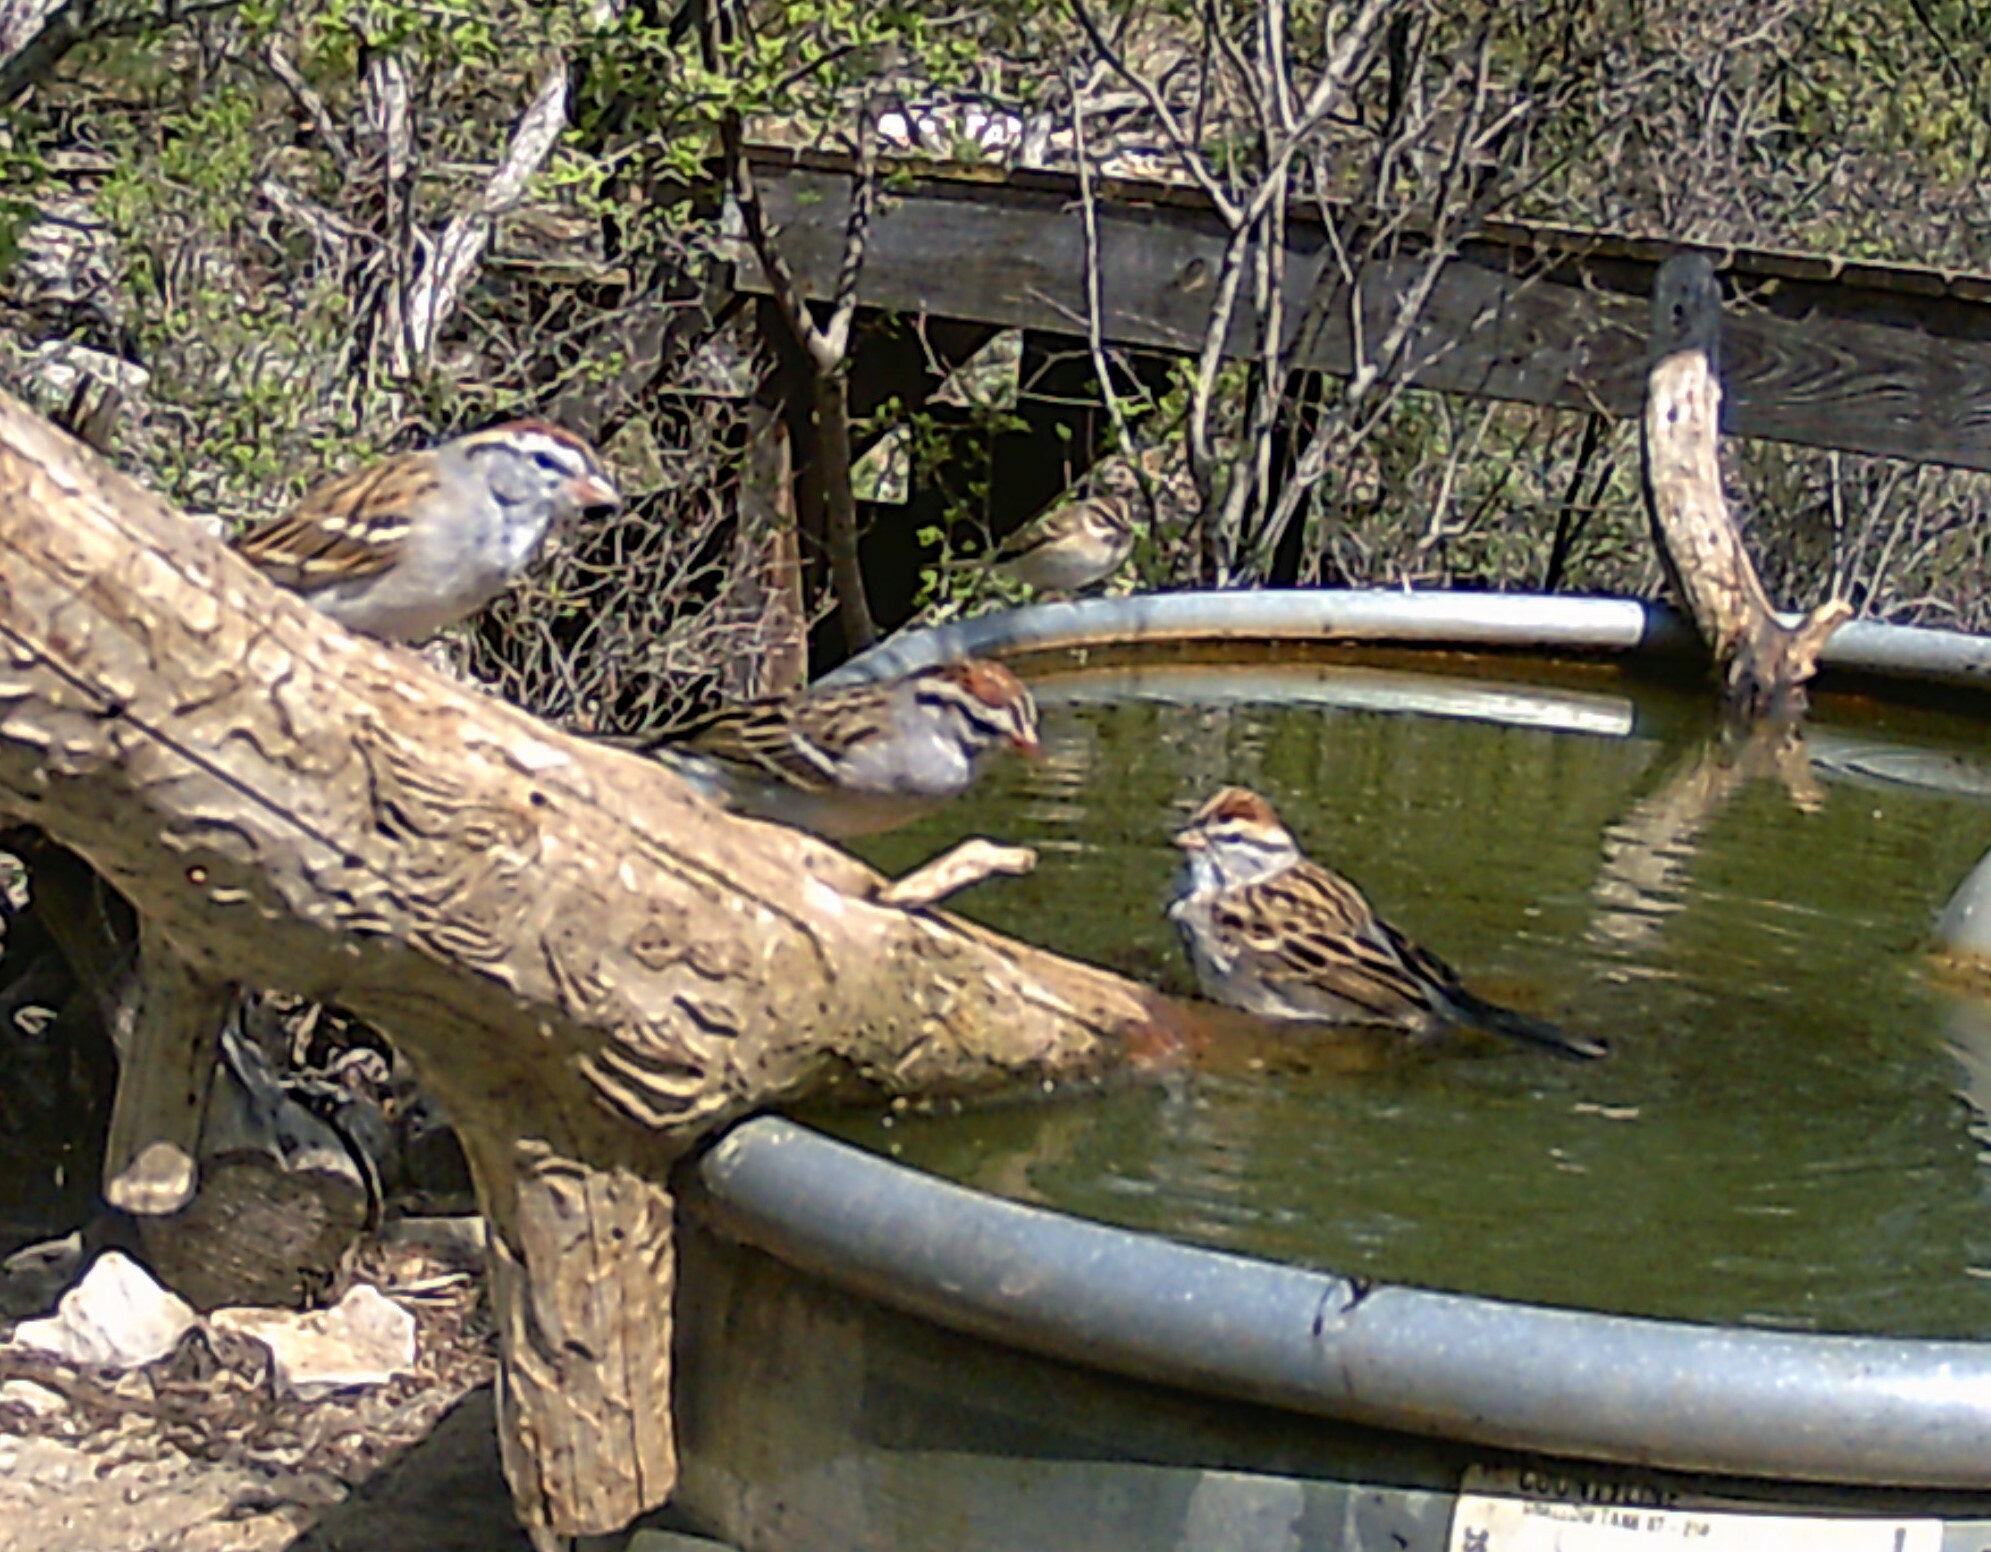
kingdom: Animalia
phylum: Chordata
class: Aves
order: Passeriformes
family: Passerellidae
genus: Spizella
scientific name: Spizella passerina
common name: Chipping sparrow
